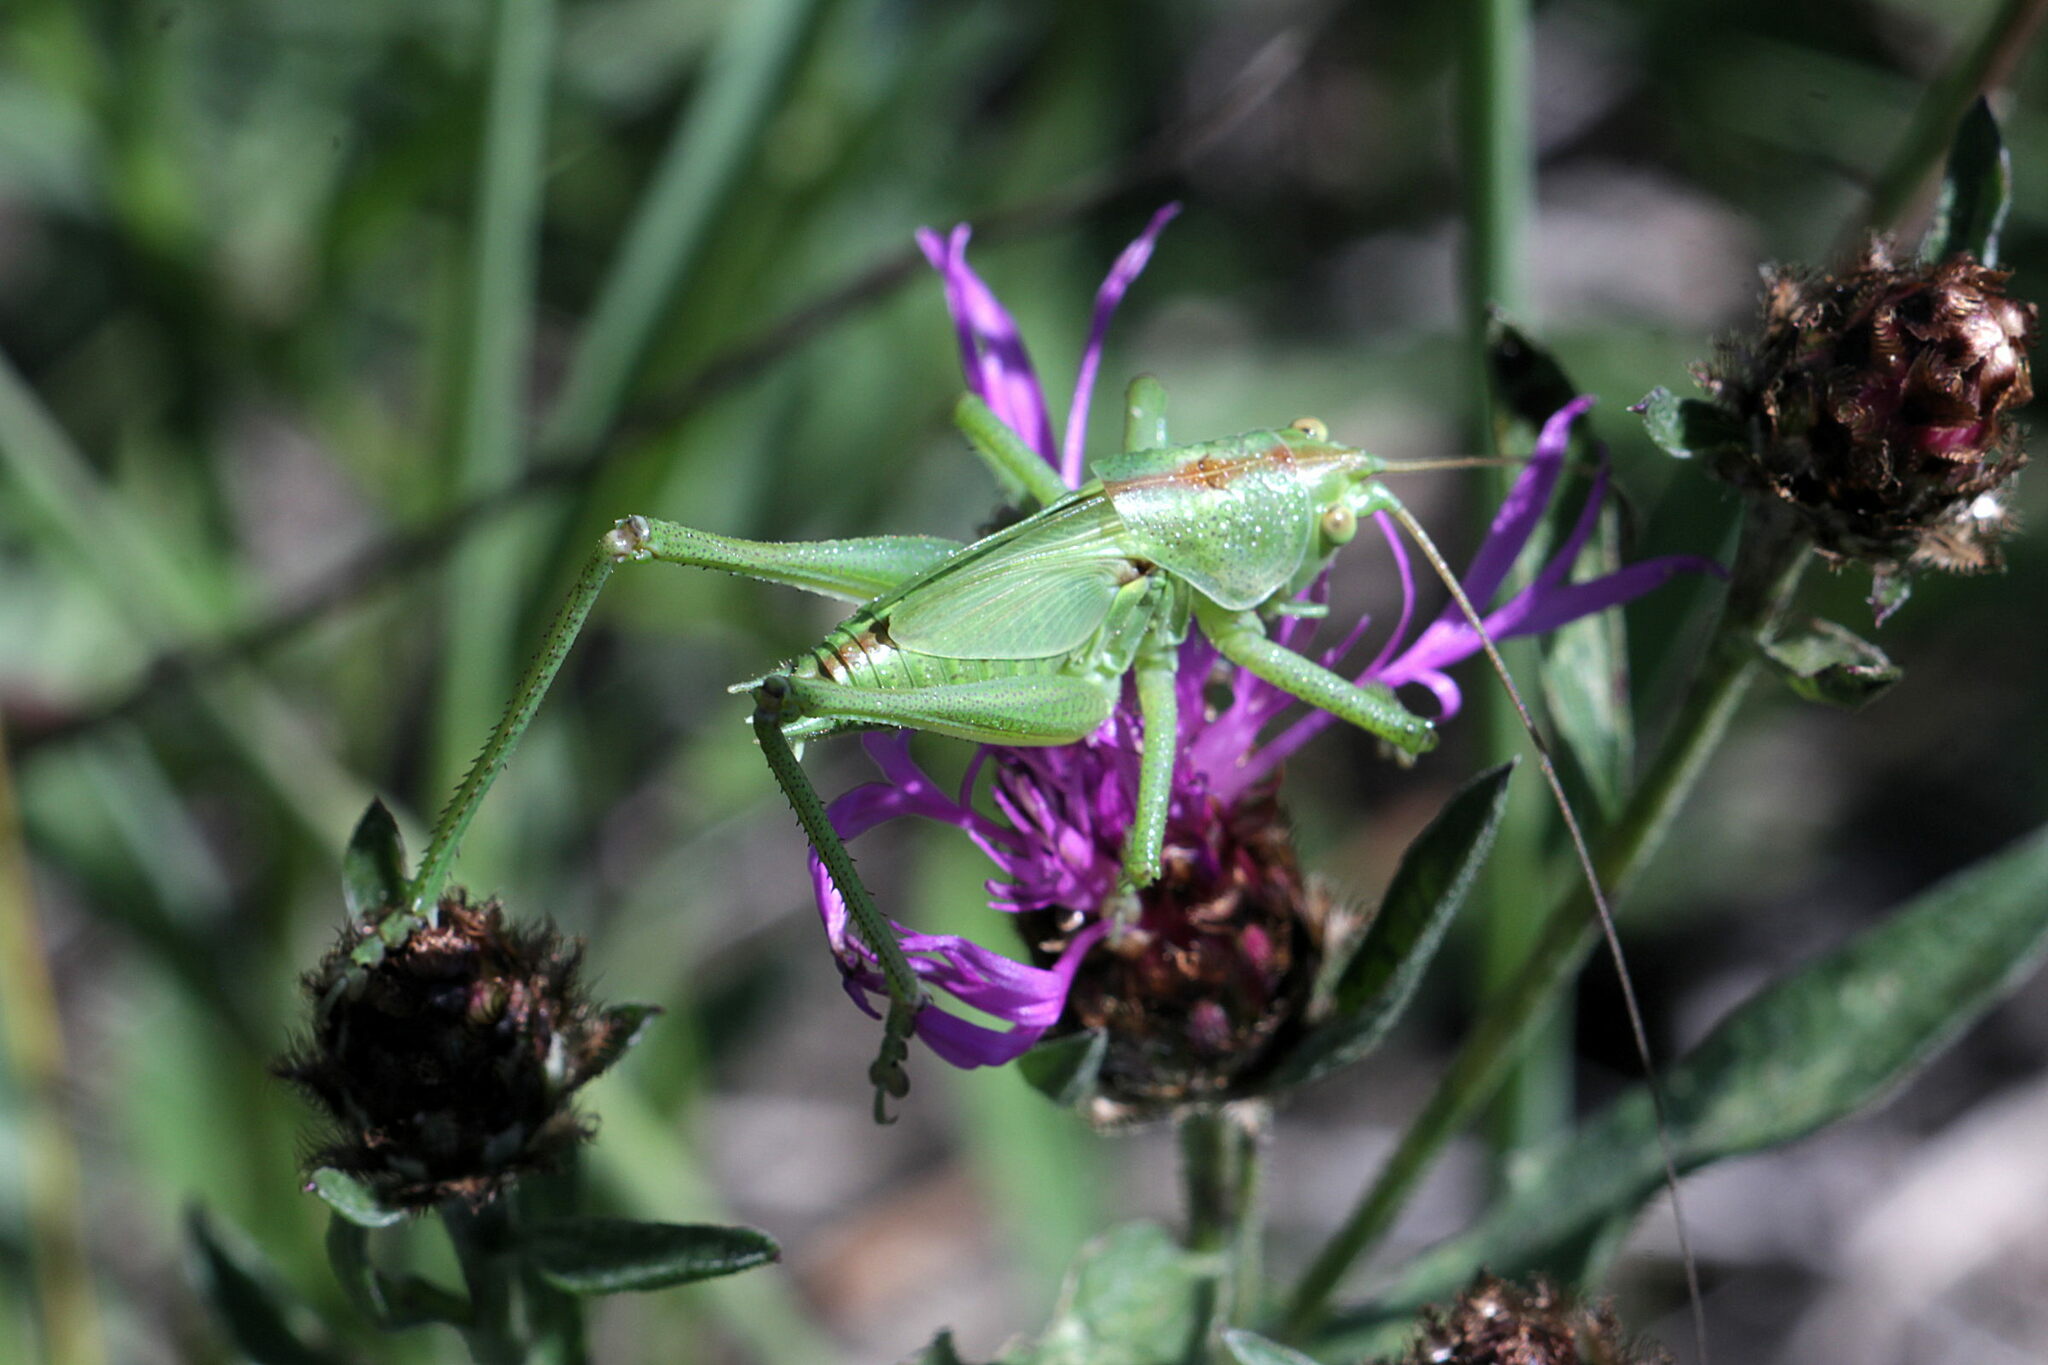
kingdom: Animalia
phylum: Arthropoda
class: Insecta
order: Orthoptera
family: Tettigoniidae
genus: Tettigonia
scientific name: Tettigonia viridissima
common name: Great green bush-cricket
